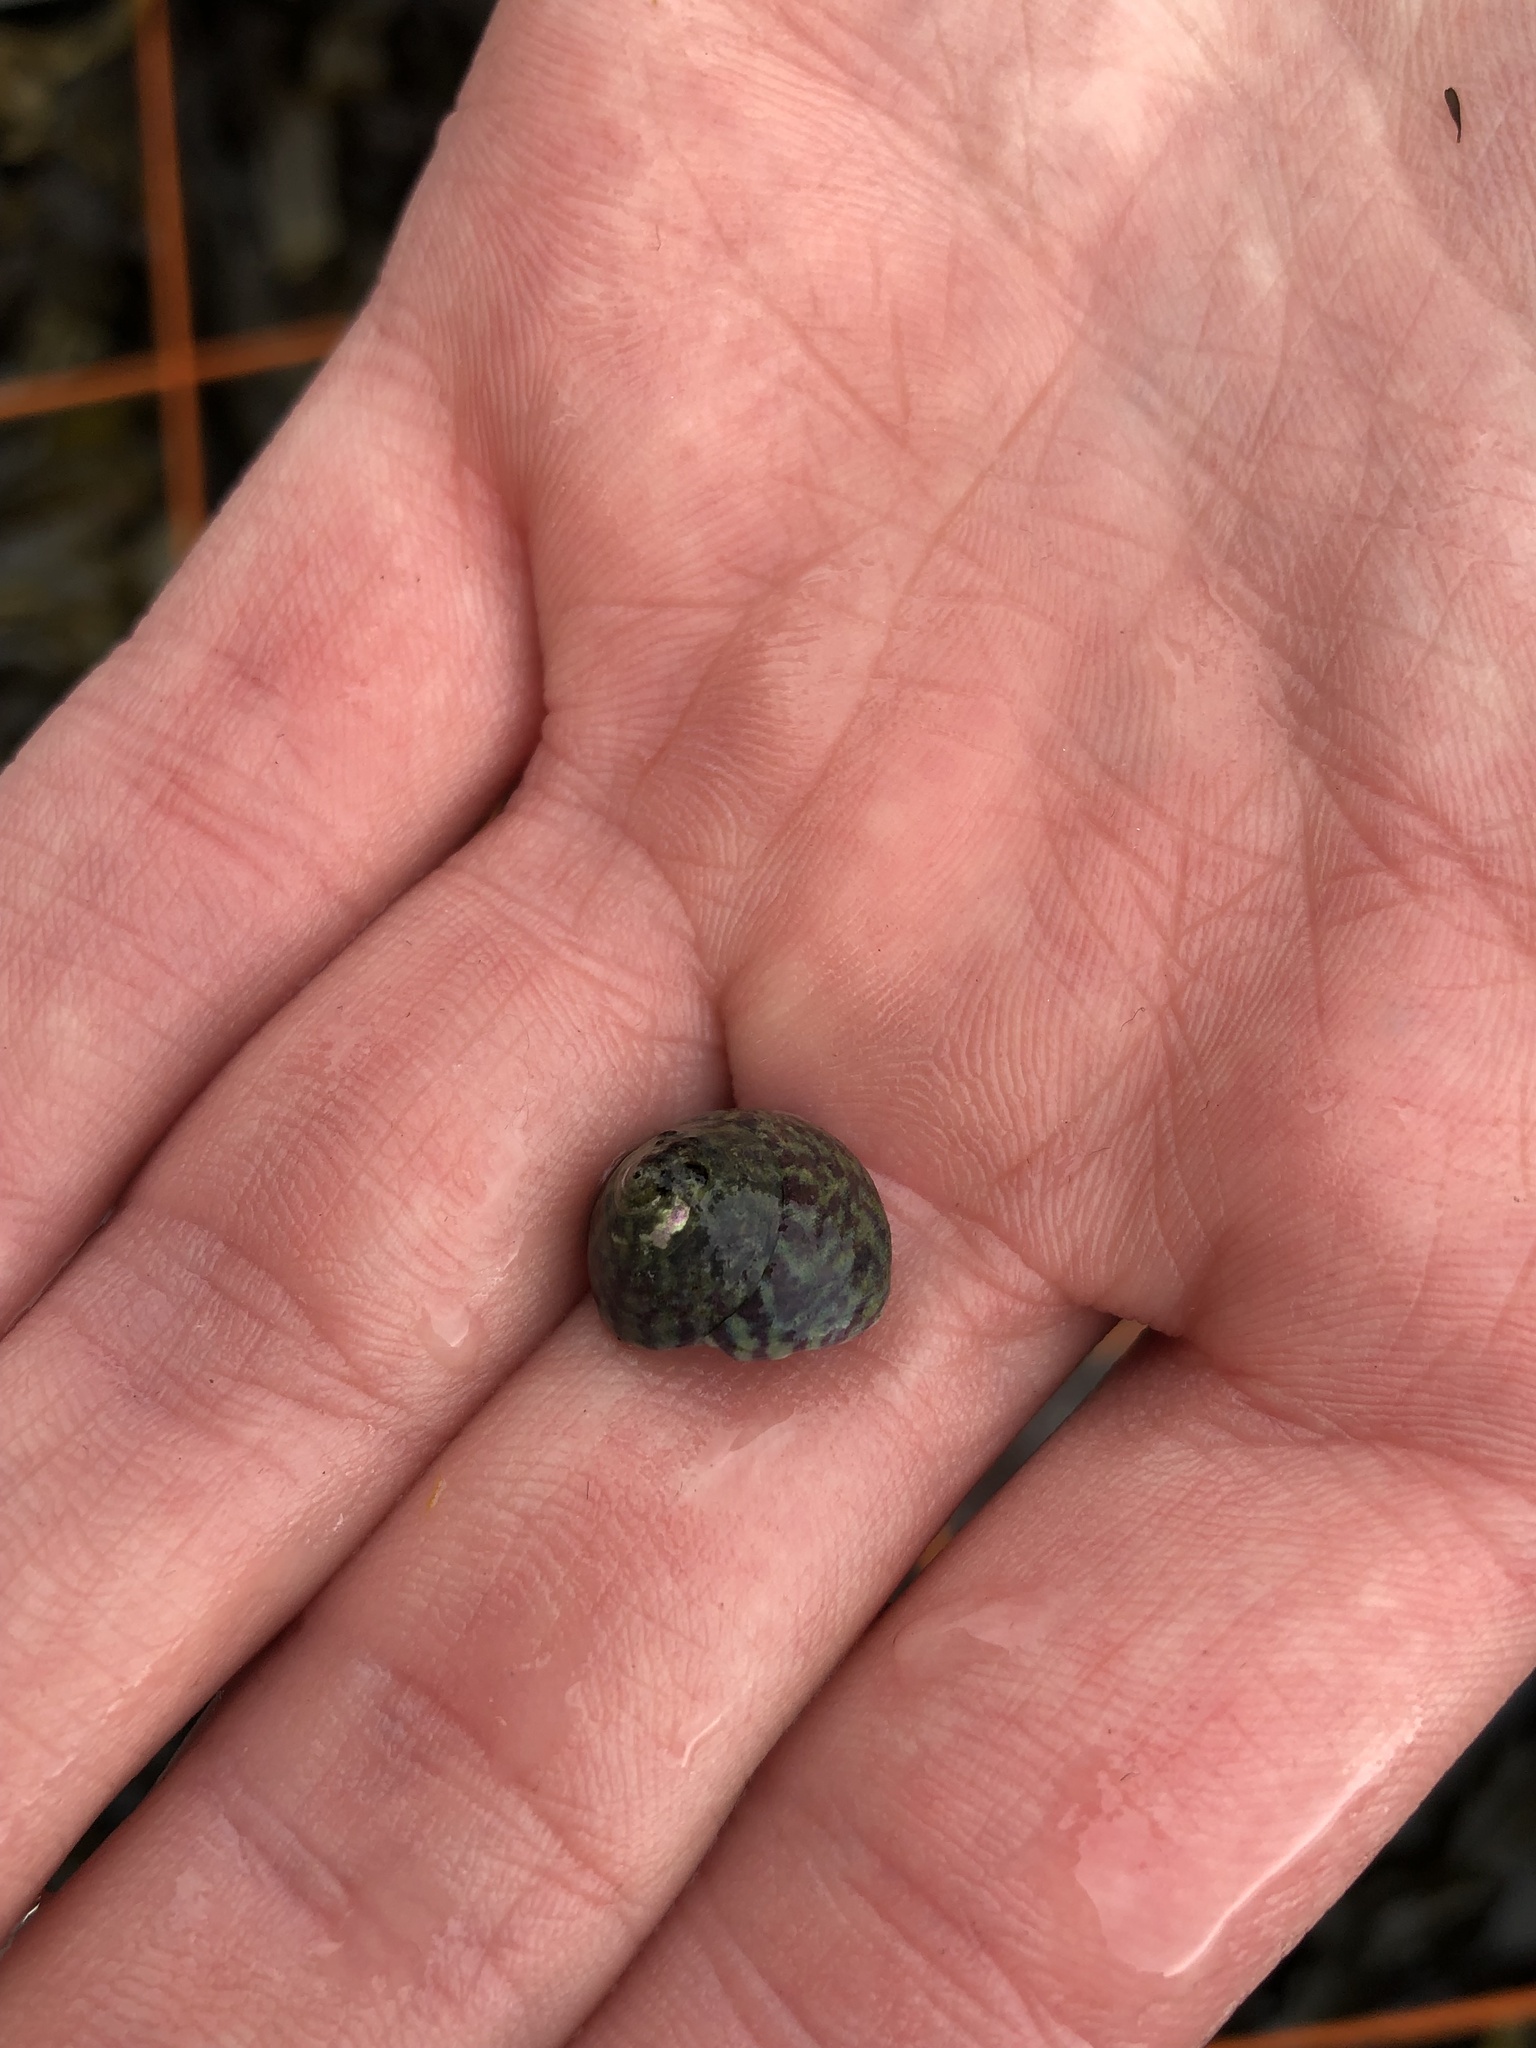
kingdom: Animalia
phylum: Mollusca
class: Gastropoda
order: Trochida
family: Trochidae
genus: Steromphala
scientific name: Steromphala umbilicalis
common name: Flat top shell
